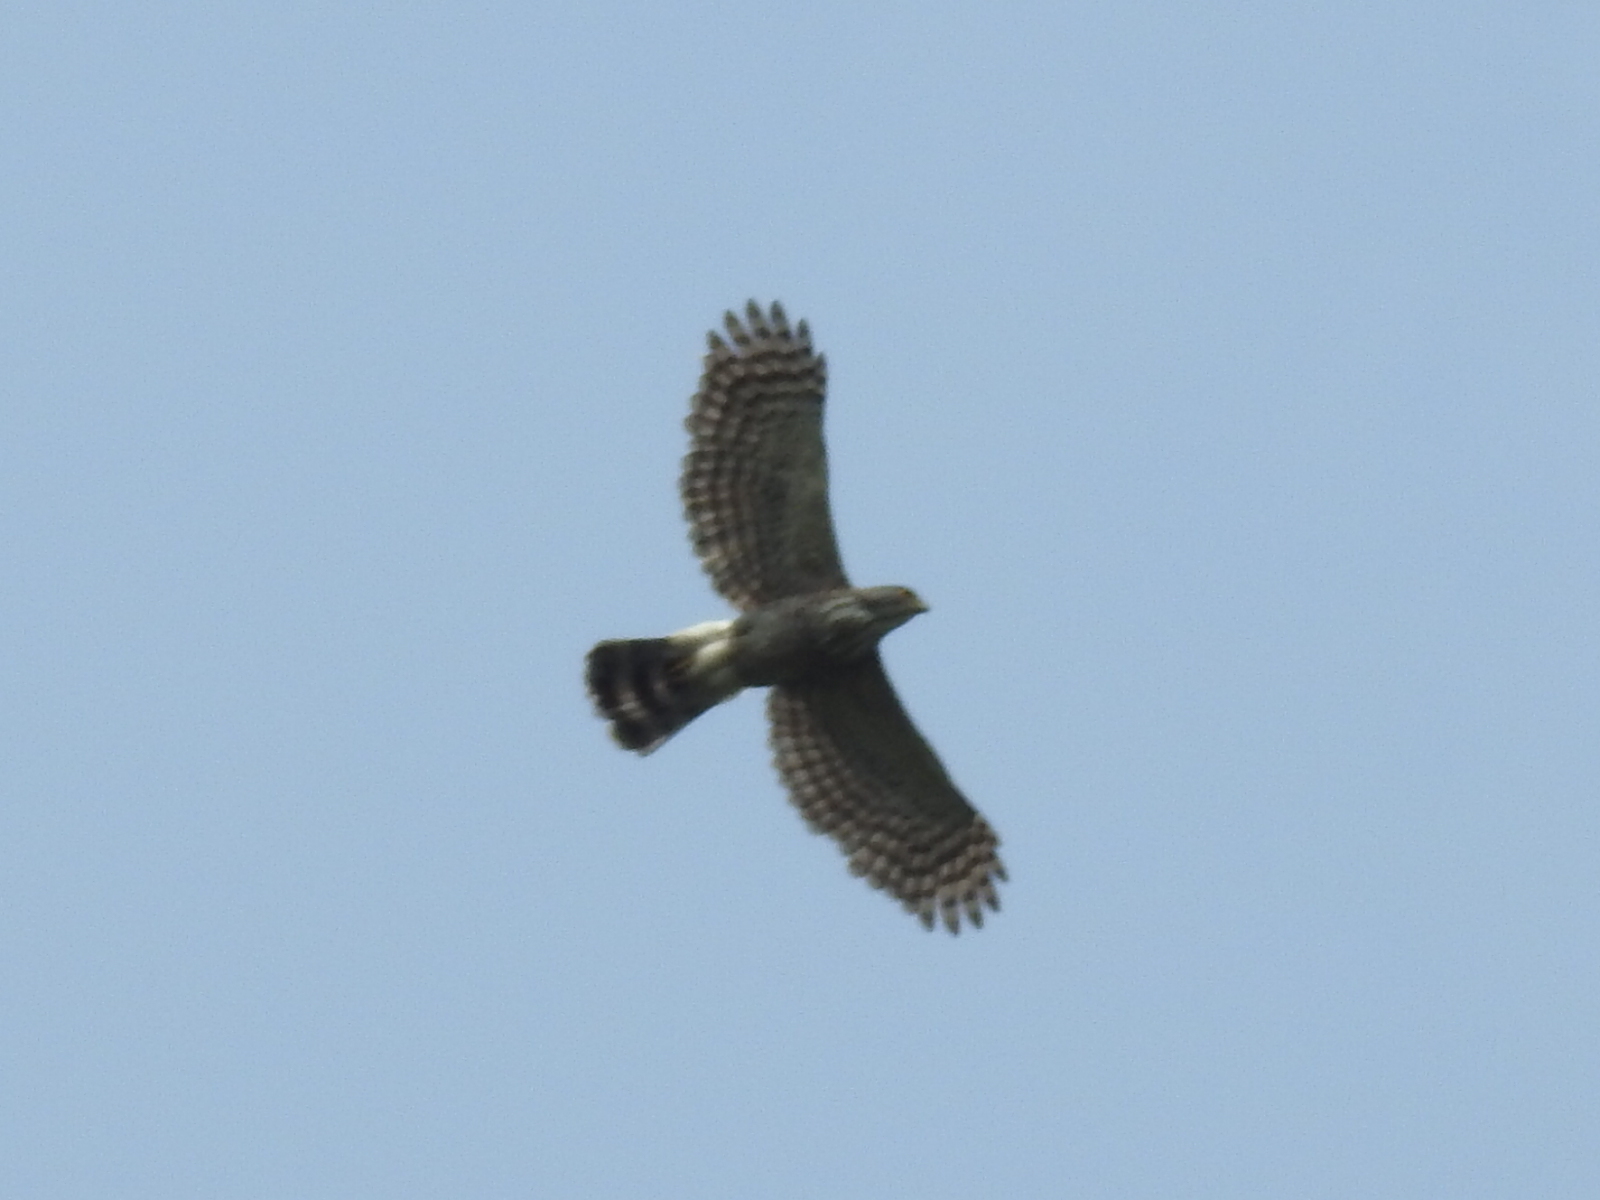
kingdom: Animalia
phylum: Chordata
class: Aves
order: Accipitriformes
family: Accipitridae
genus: Accipiter
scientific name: Accipiter trivirgatus
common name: Crested goshawk
